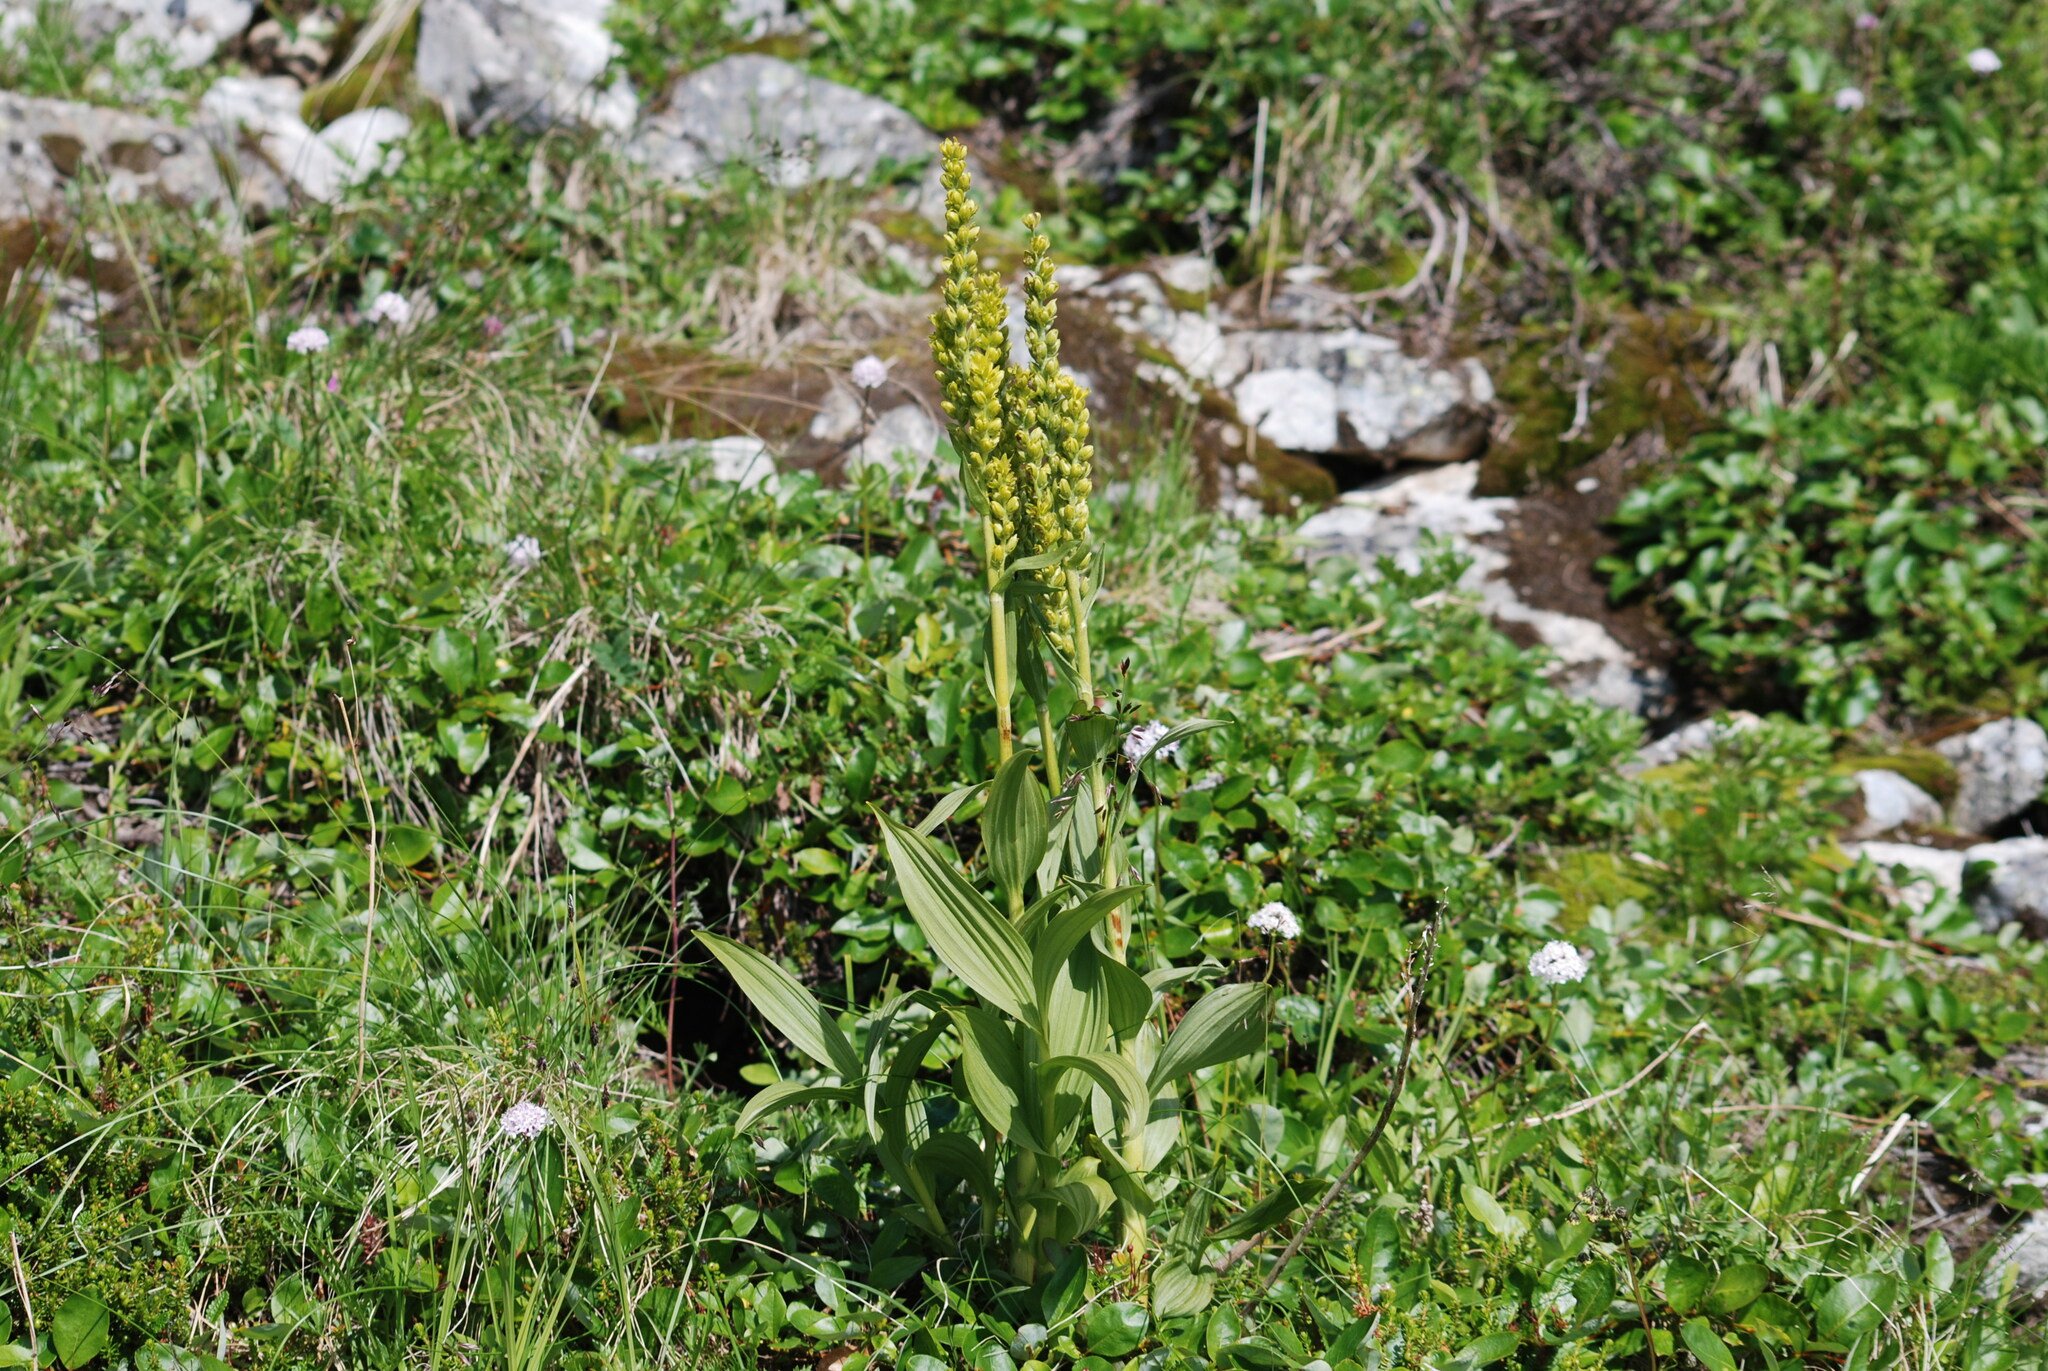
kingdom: Plantae
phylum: Tracheophyta
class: Liliopsida
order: Liliales
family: Melanthiaceae
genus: Veratrum
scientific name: Veratrum lobelianum
